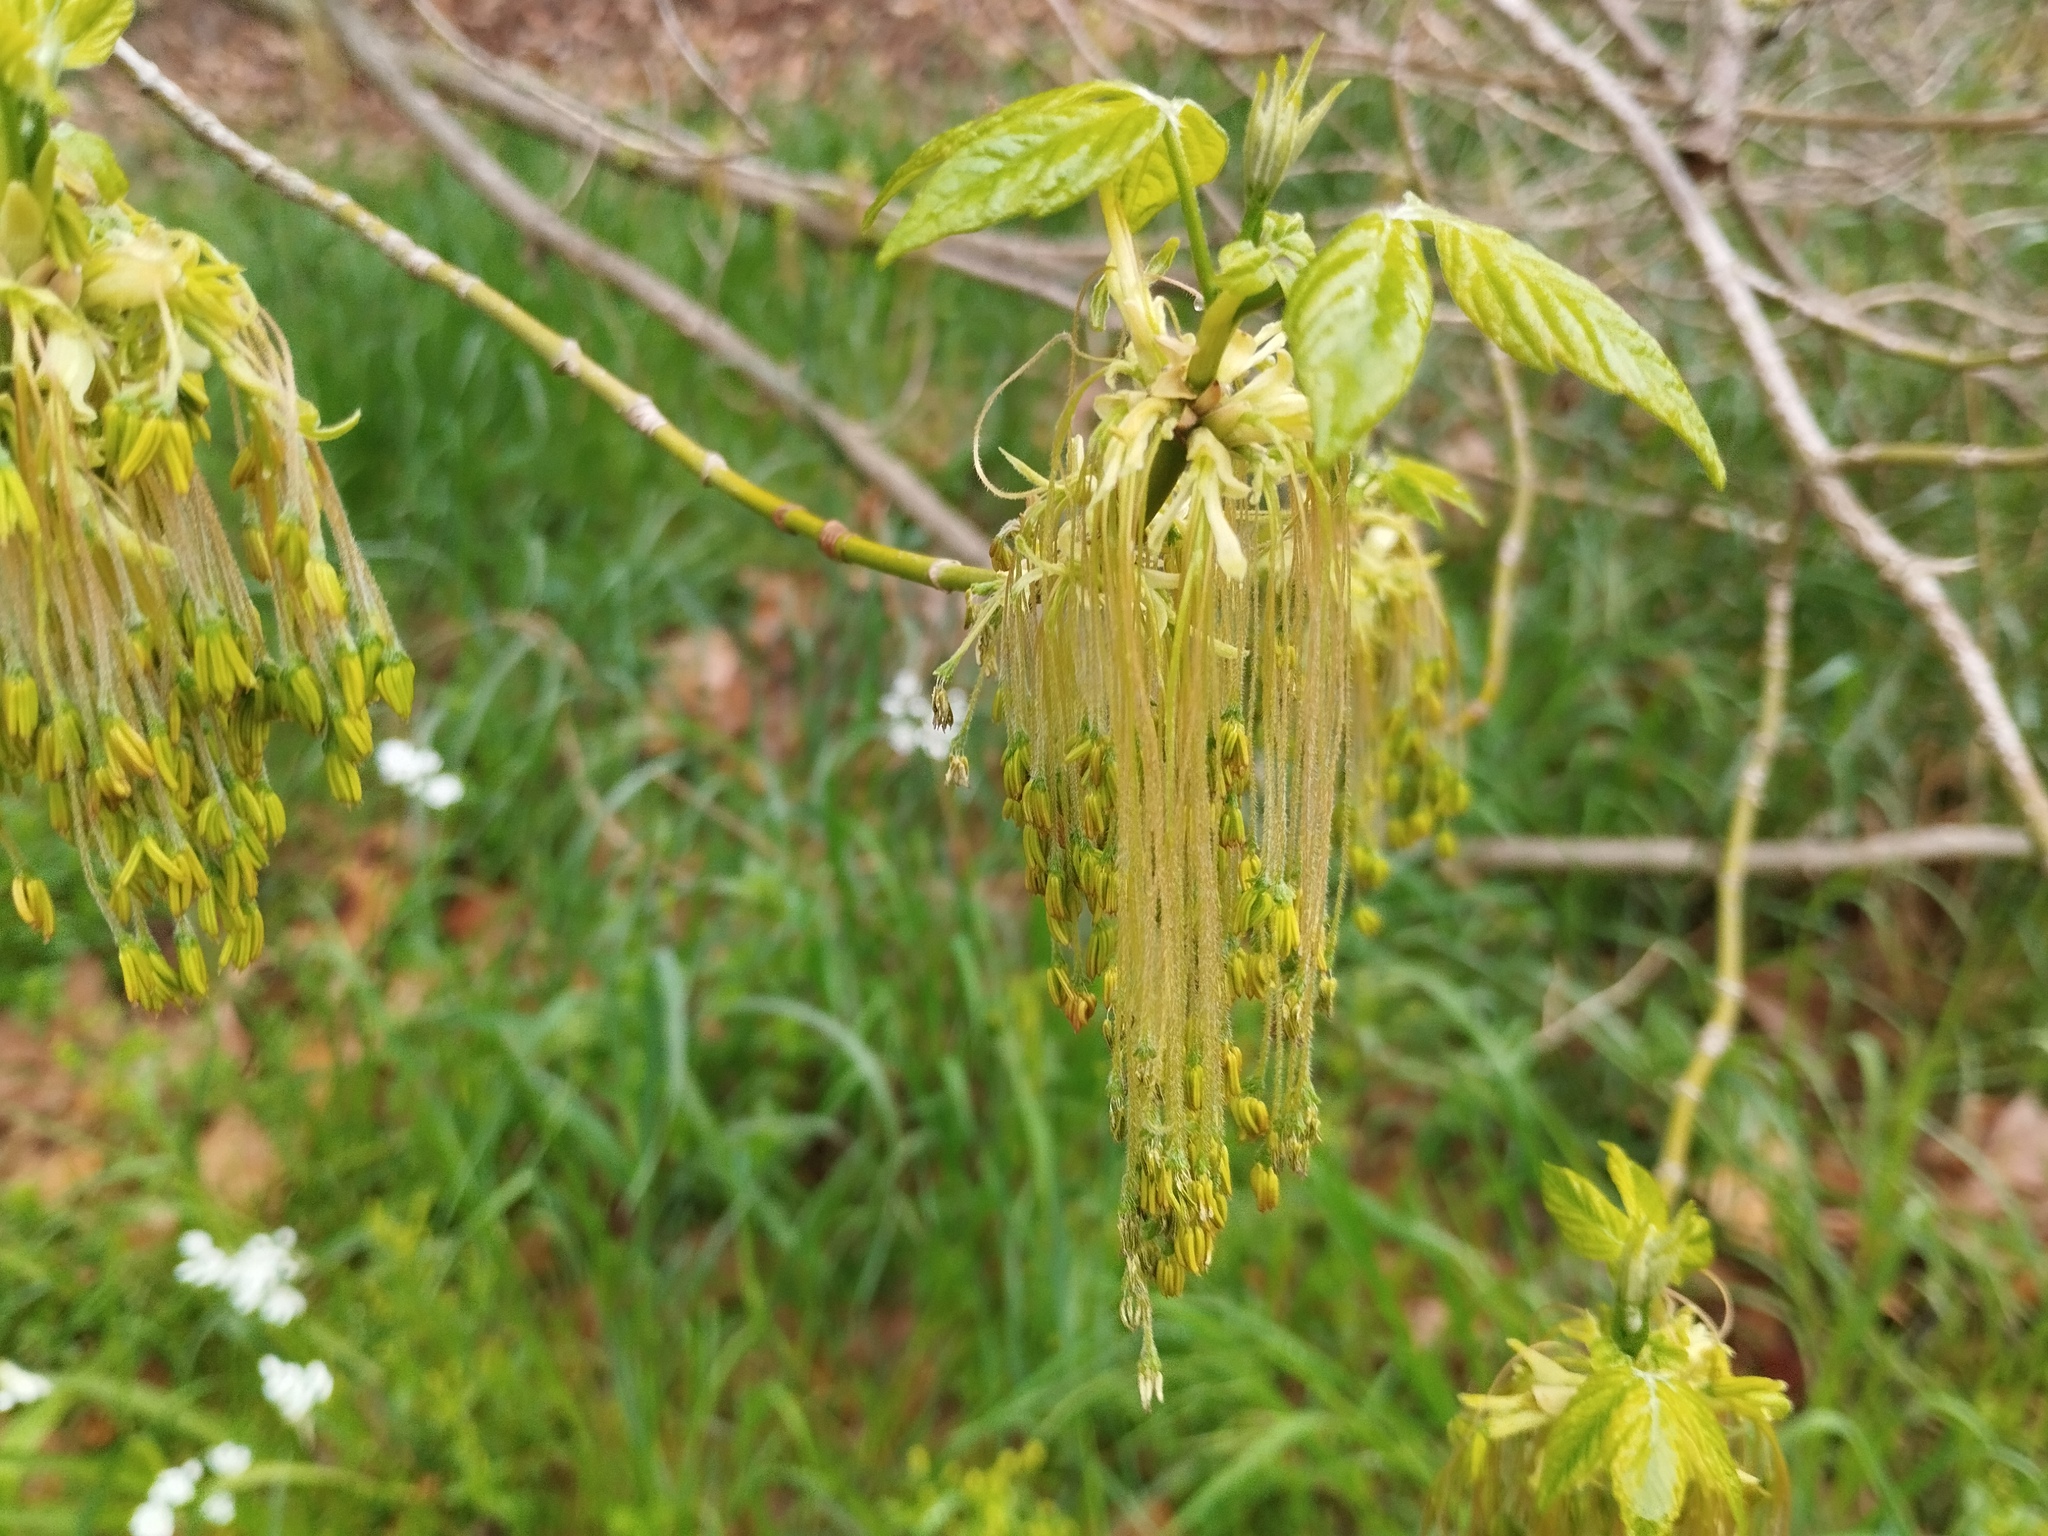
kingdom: Plantae
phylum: Tracheophyta
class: Magnoliopsida
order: Sapindales
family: Sapindaceae
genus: Acer
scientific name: Acer negundo
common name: Ashleaf maple
